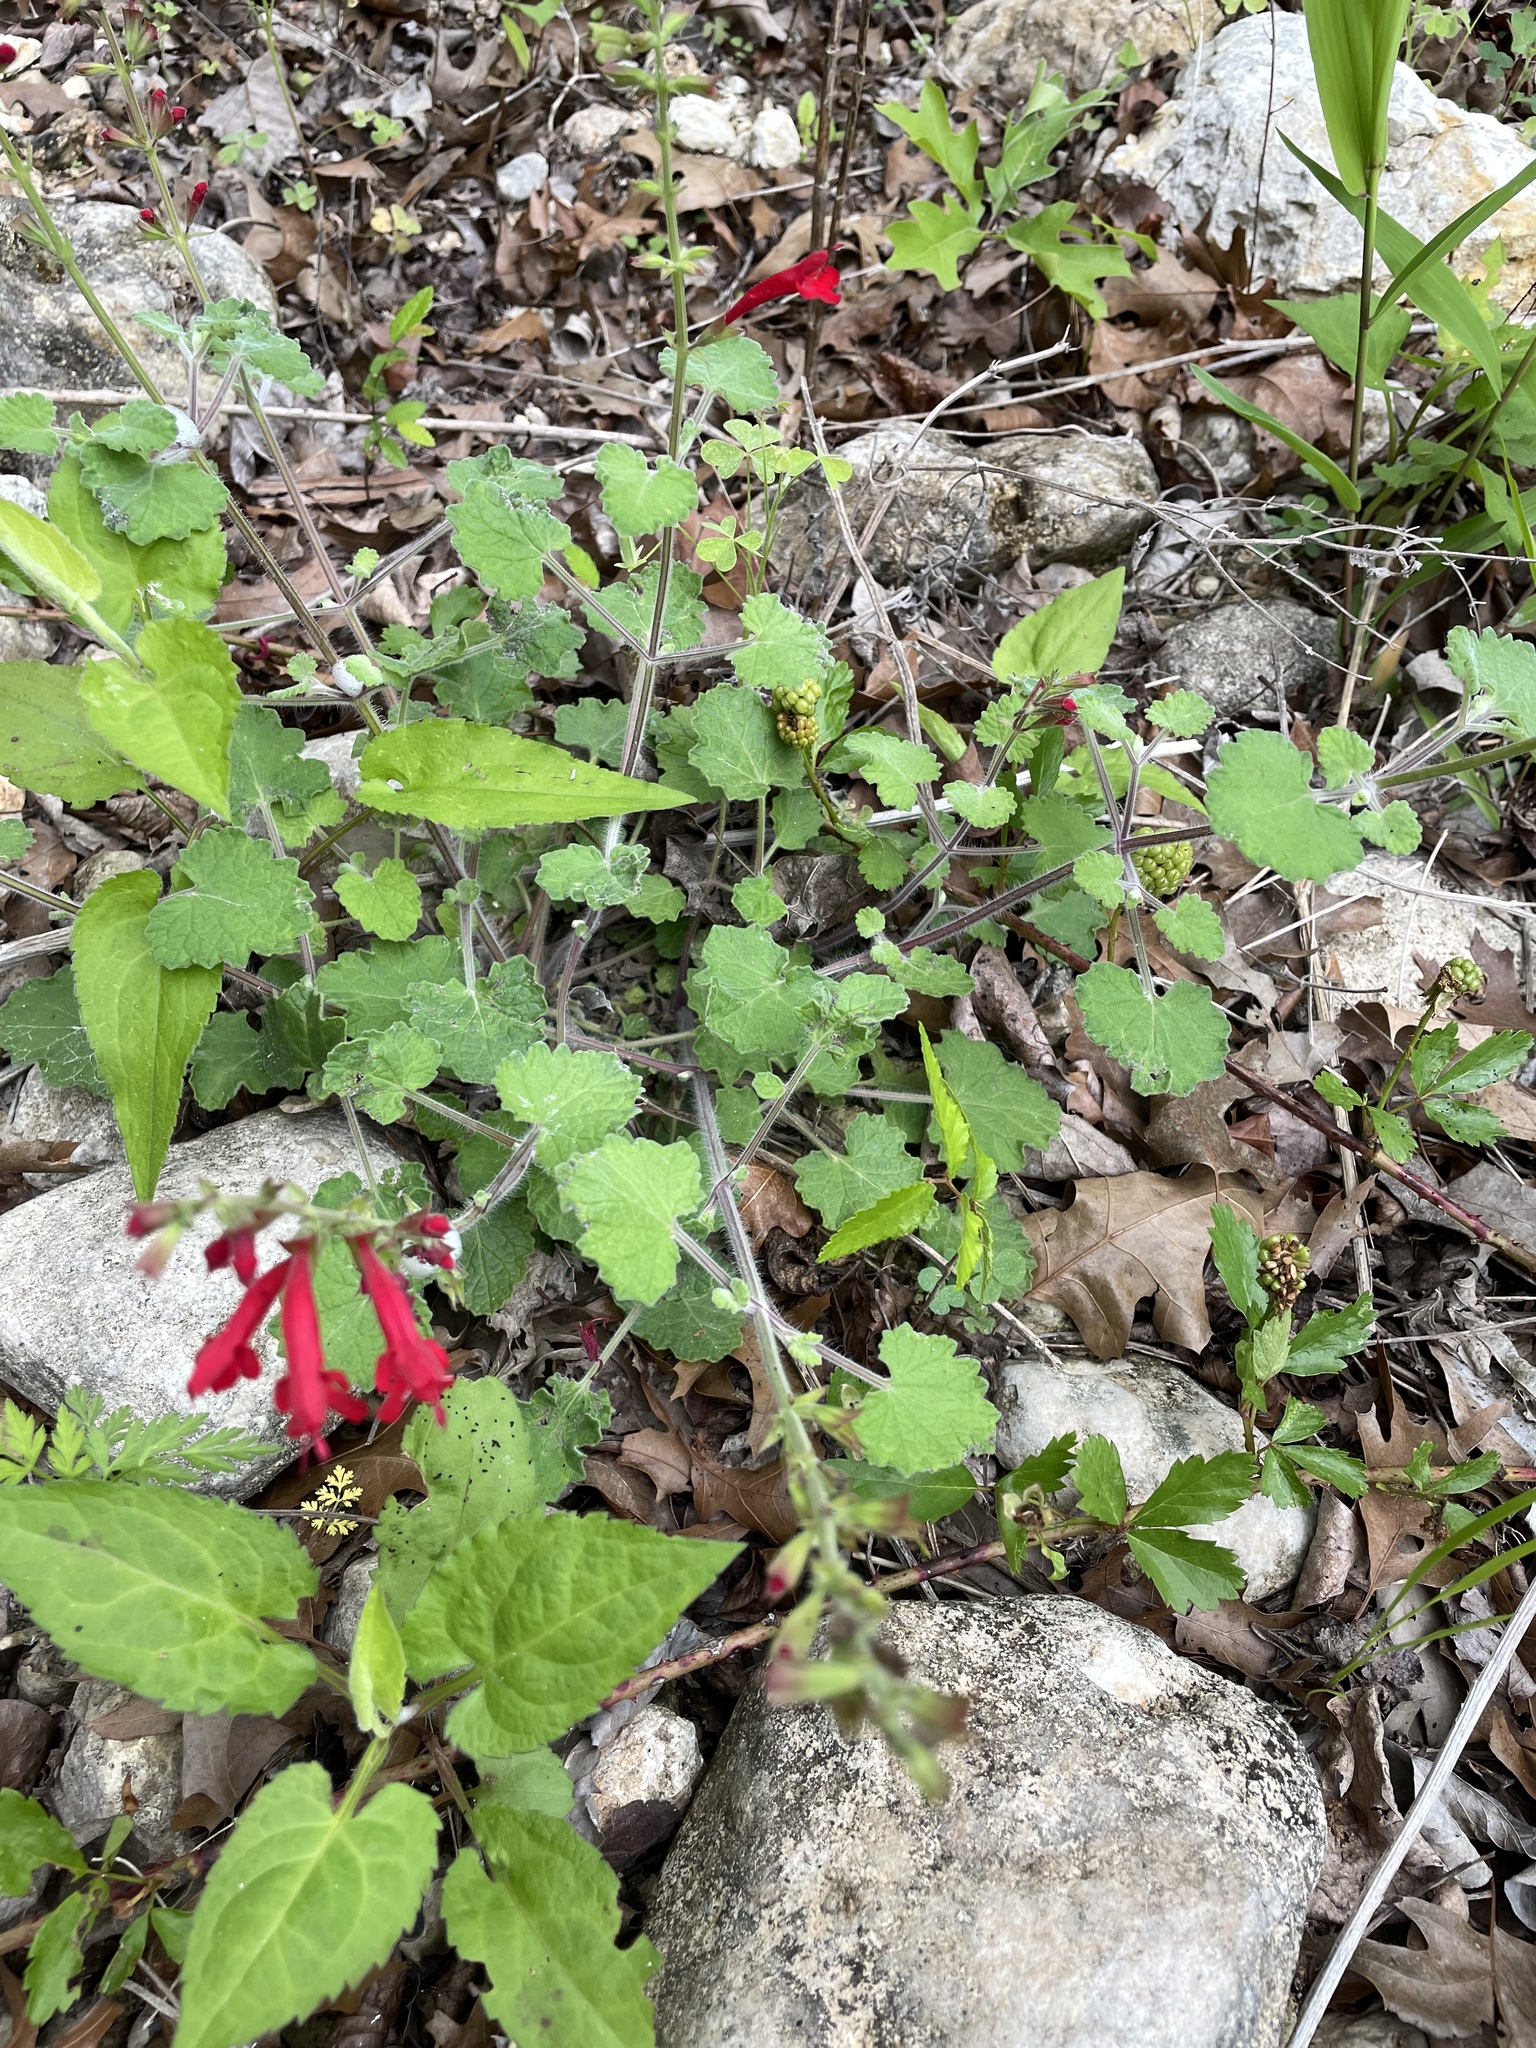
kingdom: Plantae
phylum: Tracheophyta
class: Magnoliopsida
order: Lamiales
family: Lamiaceae
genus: Salvia
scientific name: Salvia roemeriana
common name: Cedar sage
